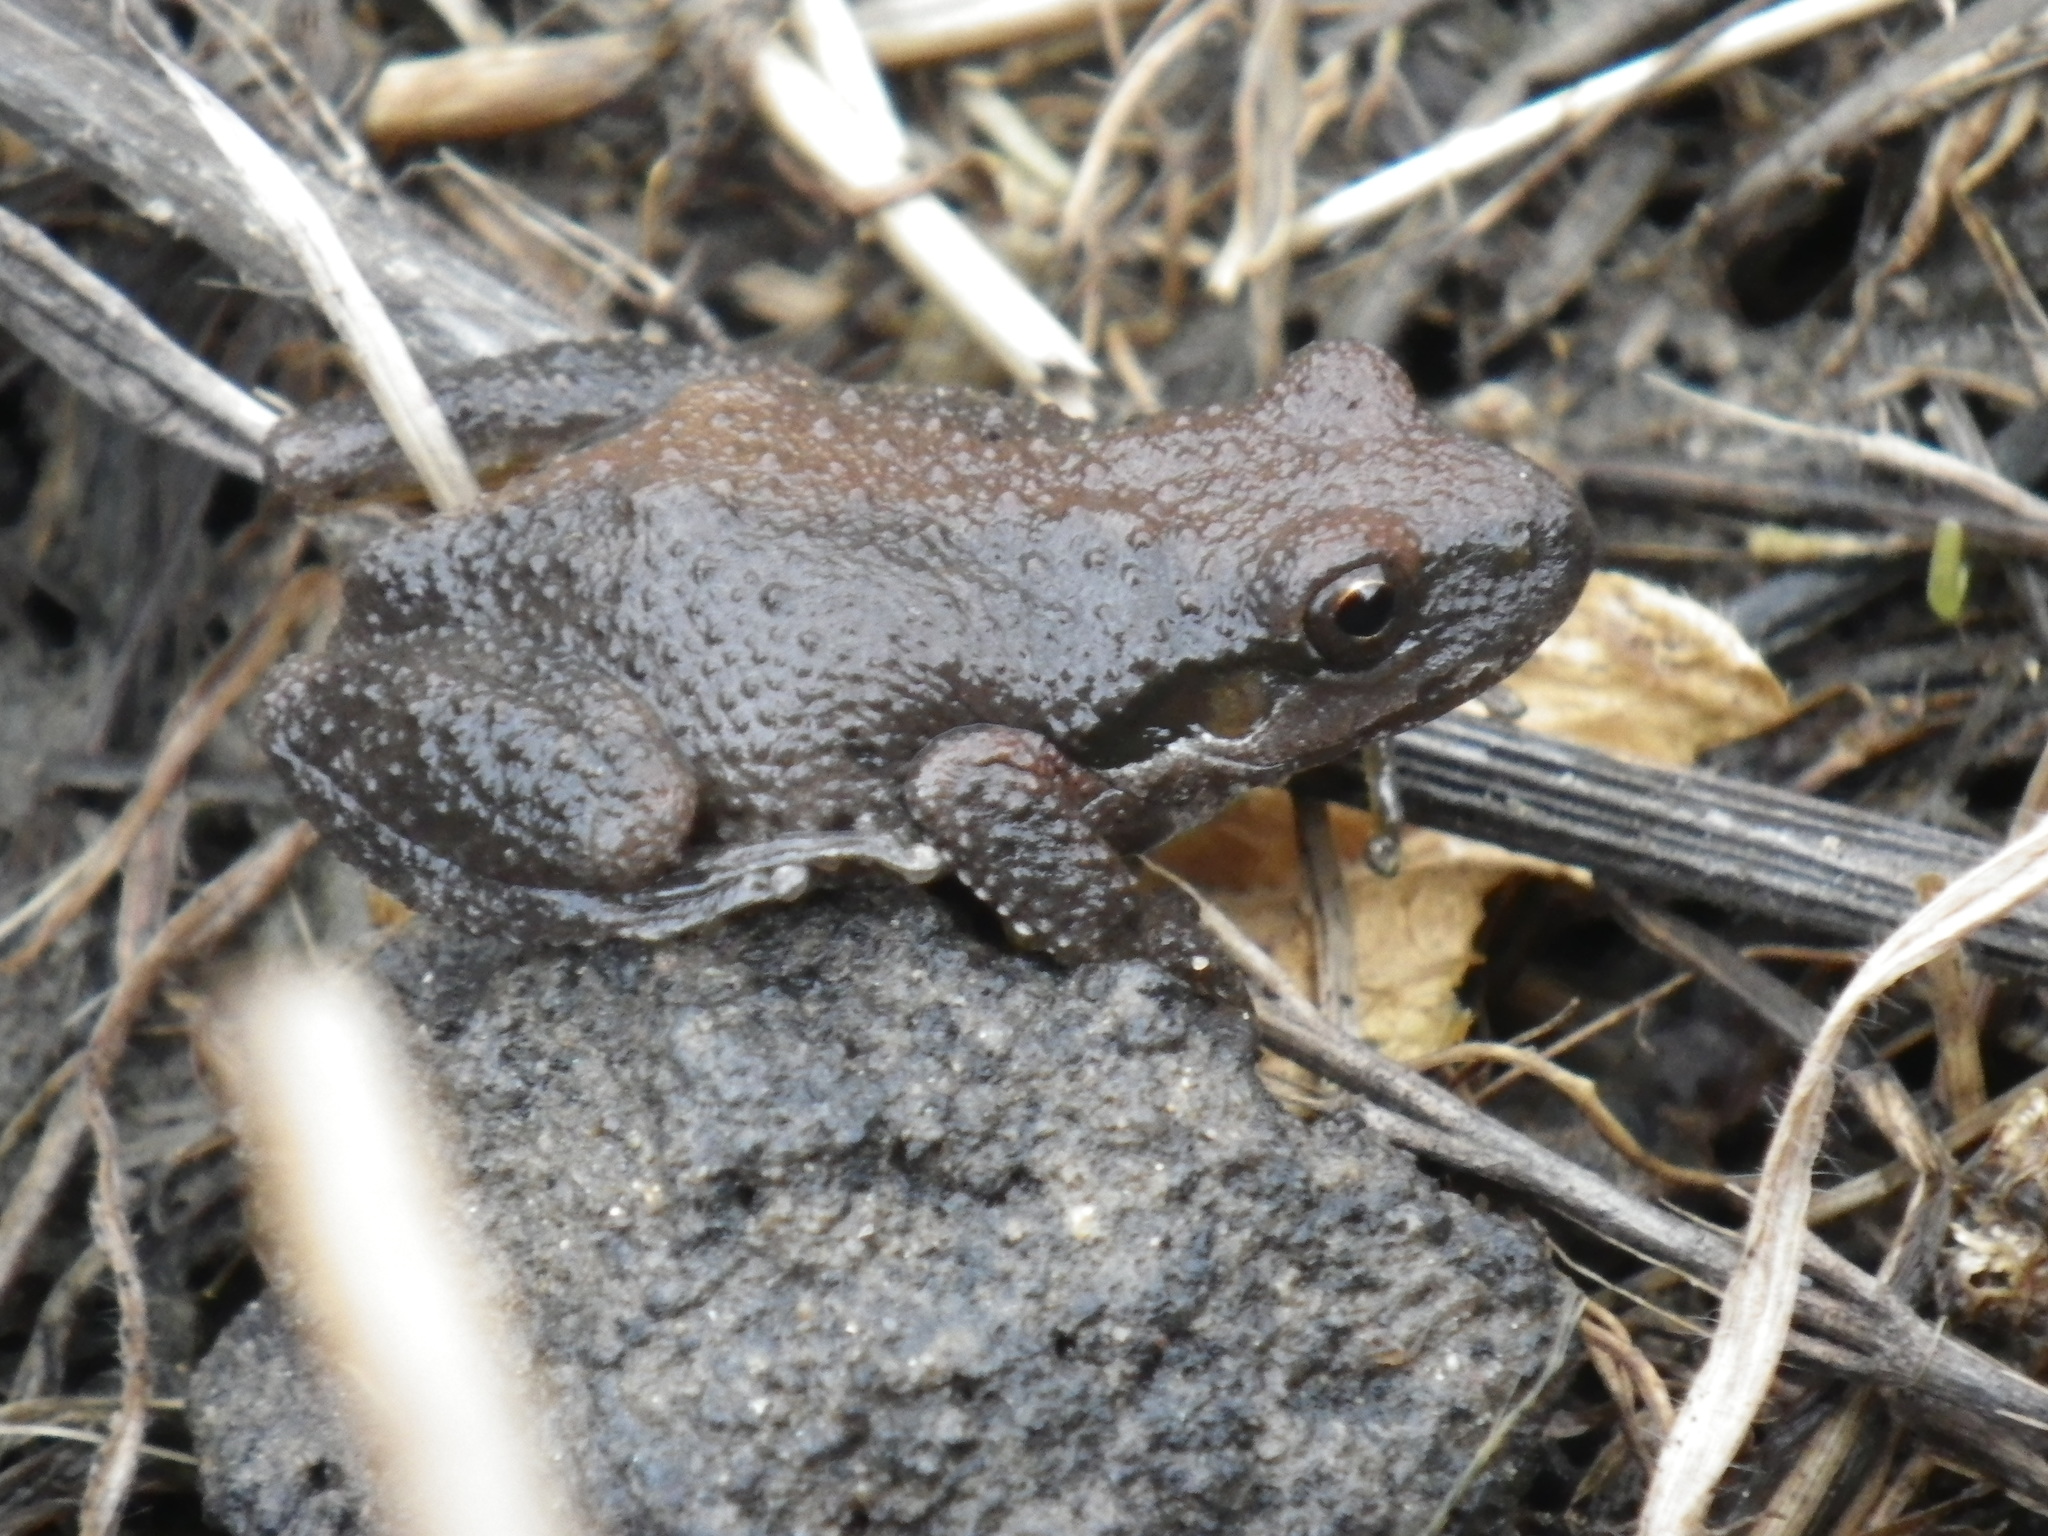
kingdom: Animalia
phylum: Chordata
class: Amphibia
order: Anura
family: Hylidae
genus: Pseudacris
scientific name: Pseudacris regilla
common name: Pacific chorus frog
